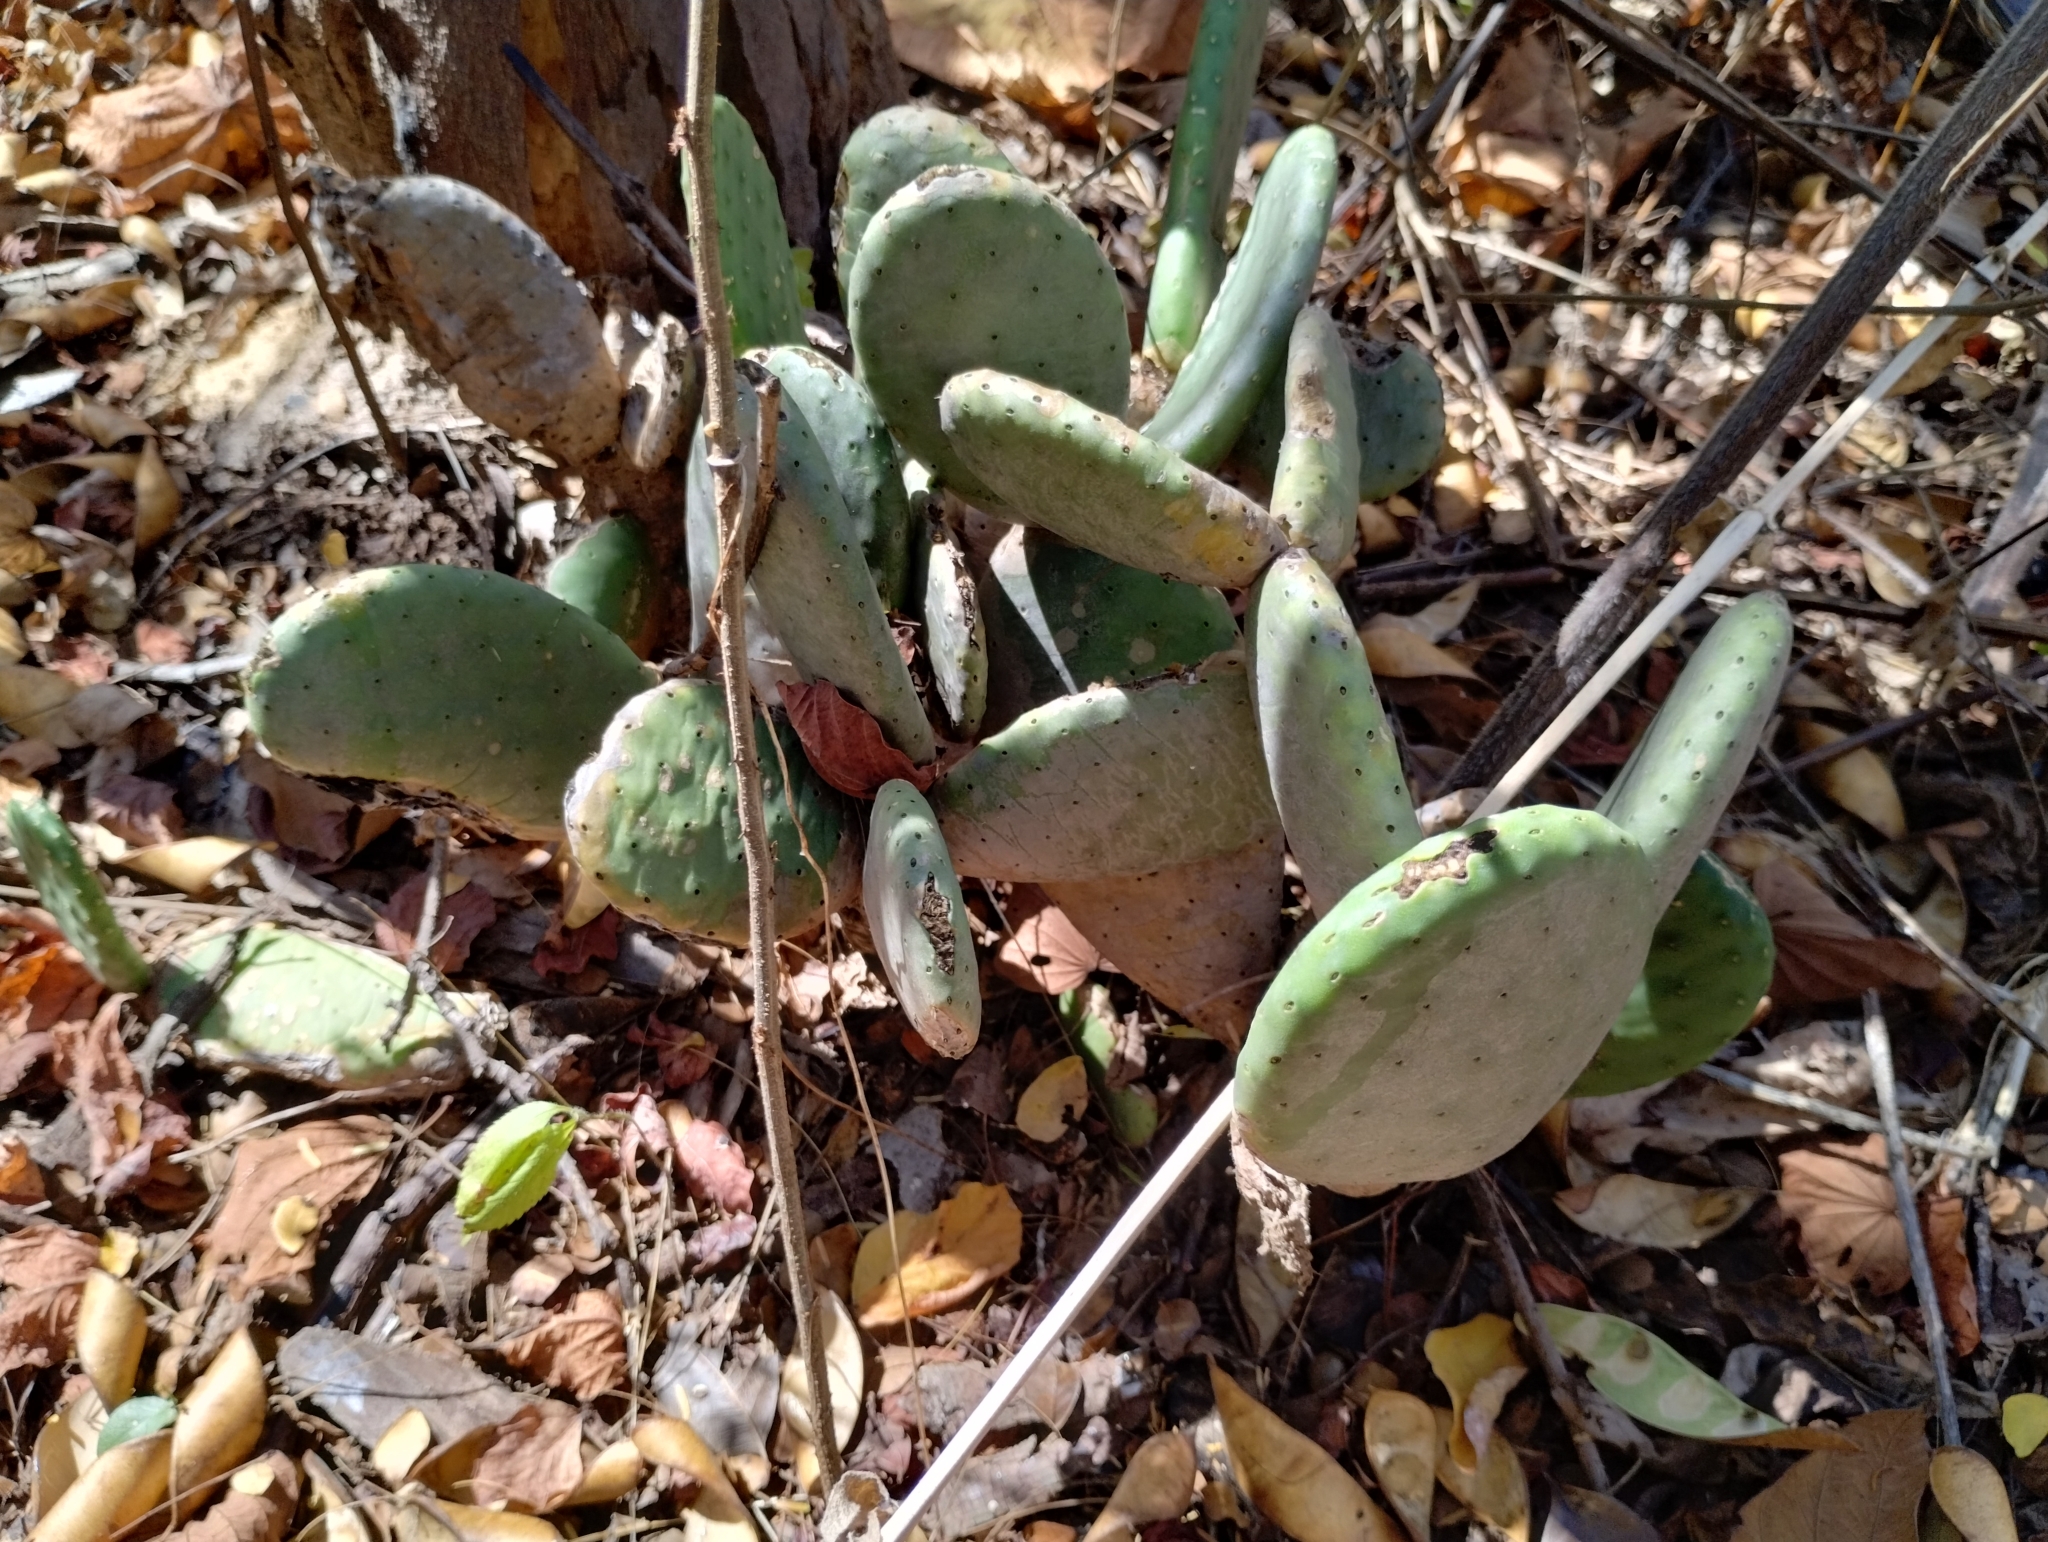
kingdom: Plantae
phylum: Tracheophyta
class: Magnoliopsida
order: Caryophyllales
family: Cactaceae
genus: Tacinga
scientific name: Tacinga inamoena
